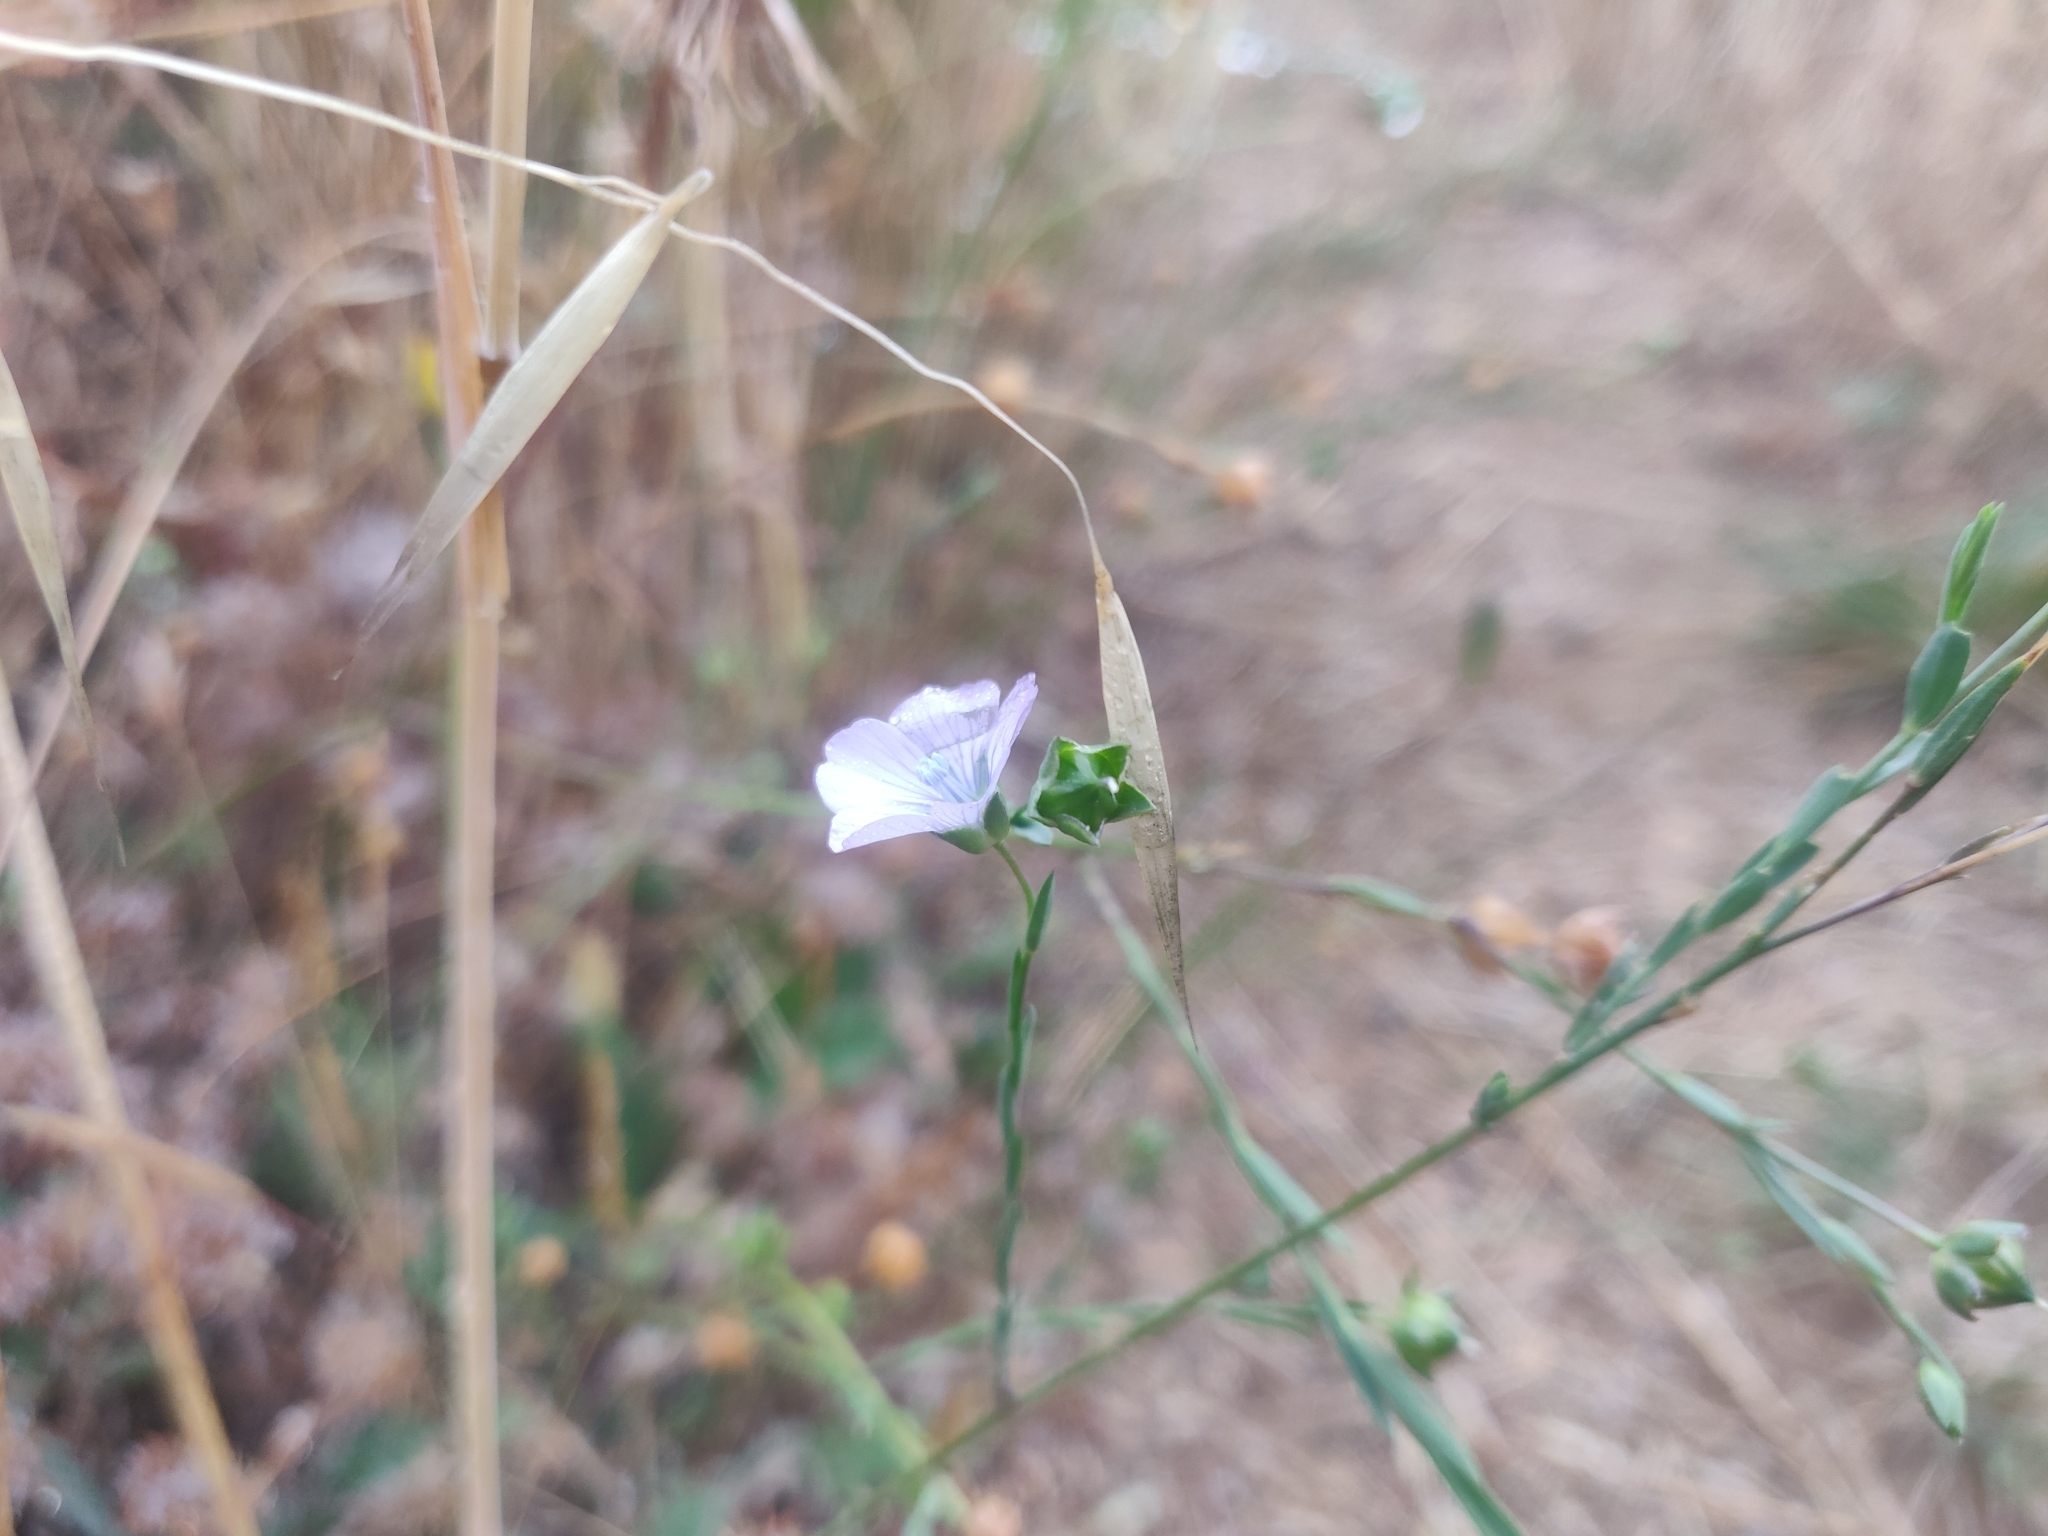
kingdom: Plantae
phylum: Tracheophyta
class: Magnoliopsida
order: Malpighiales
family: Linaceae
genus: Linum
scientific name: Linum bienne
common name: Pale flax
